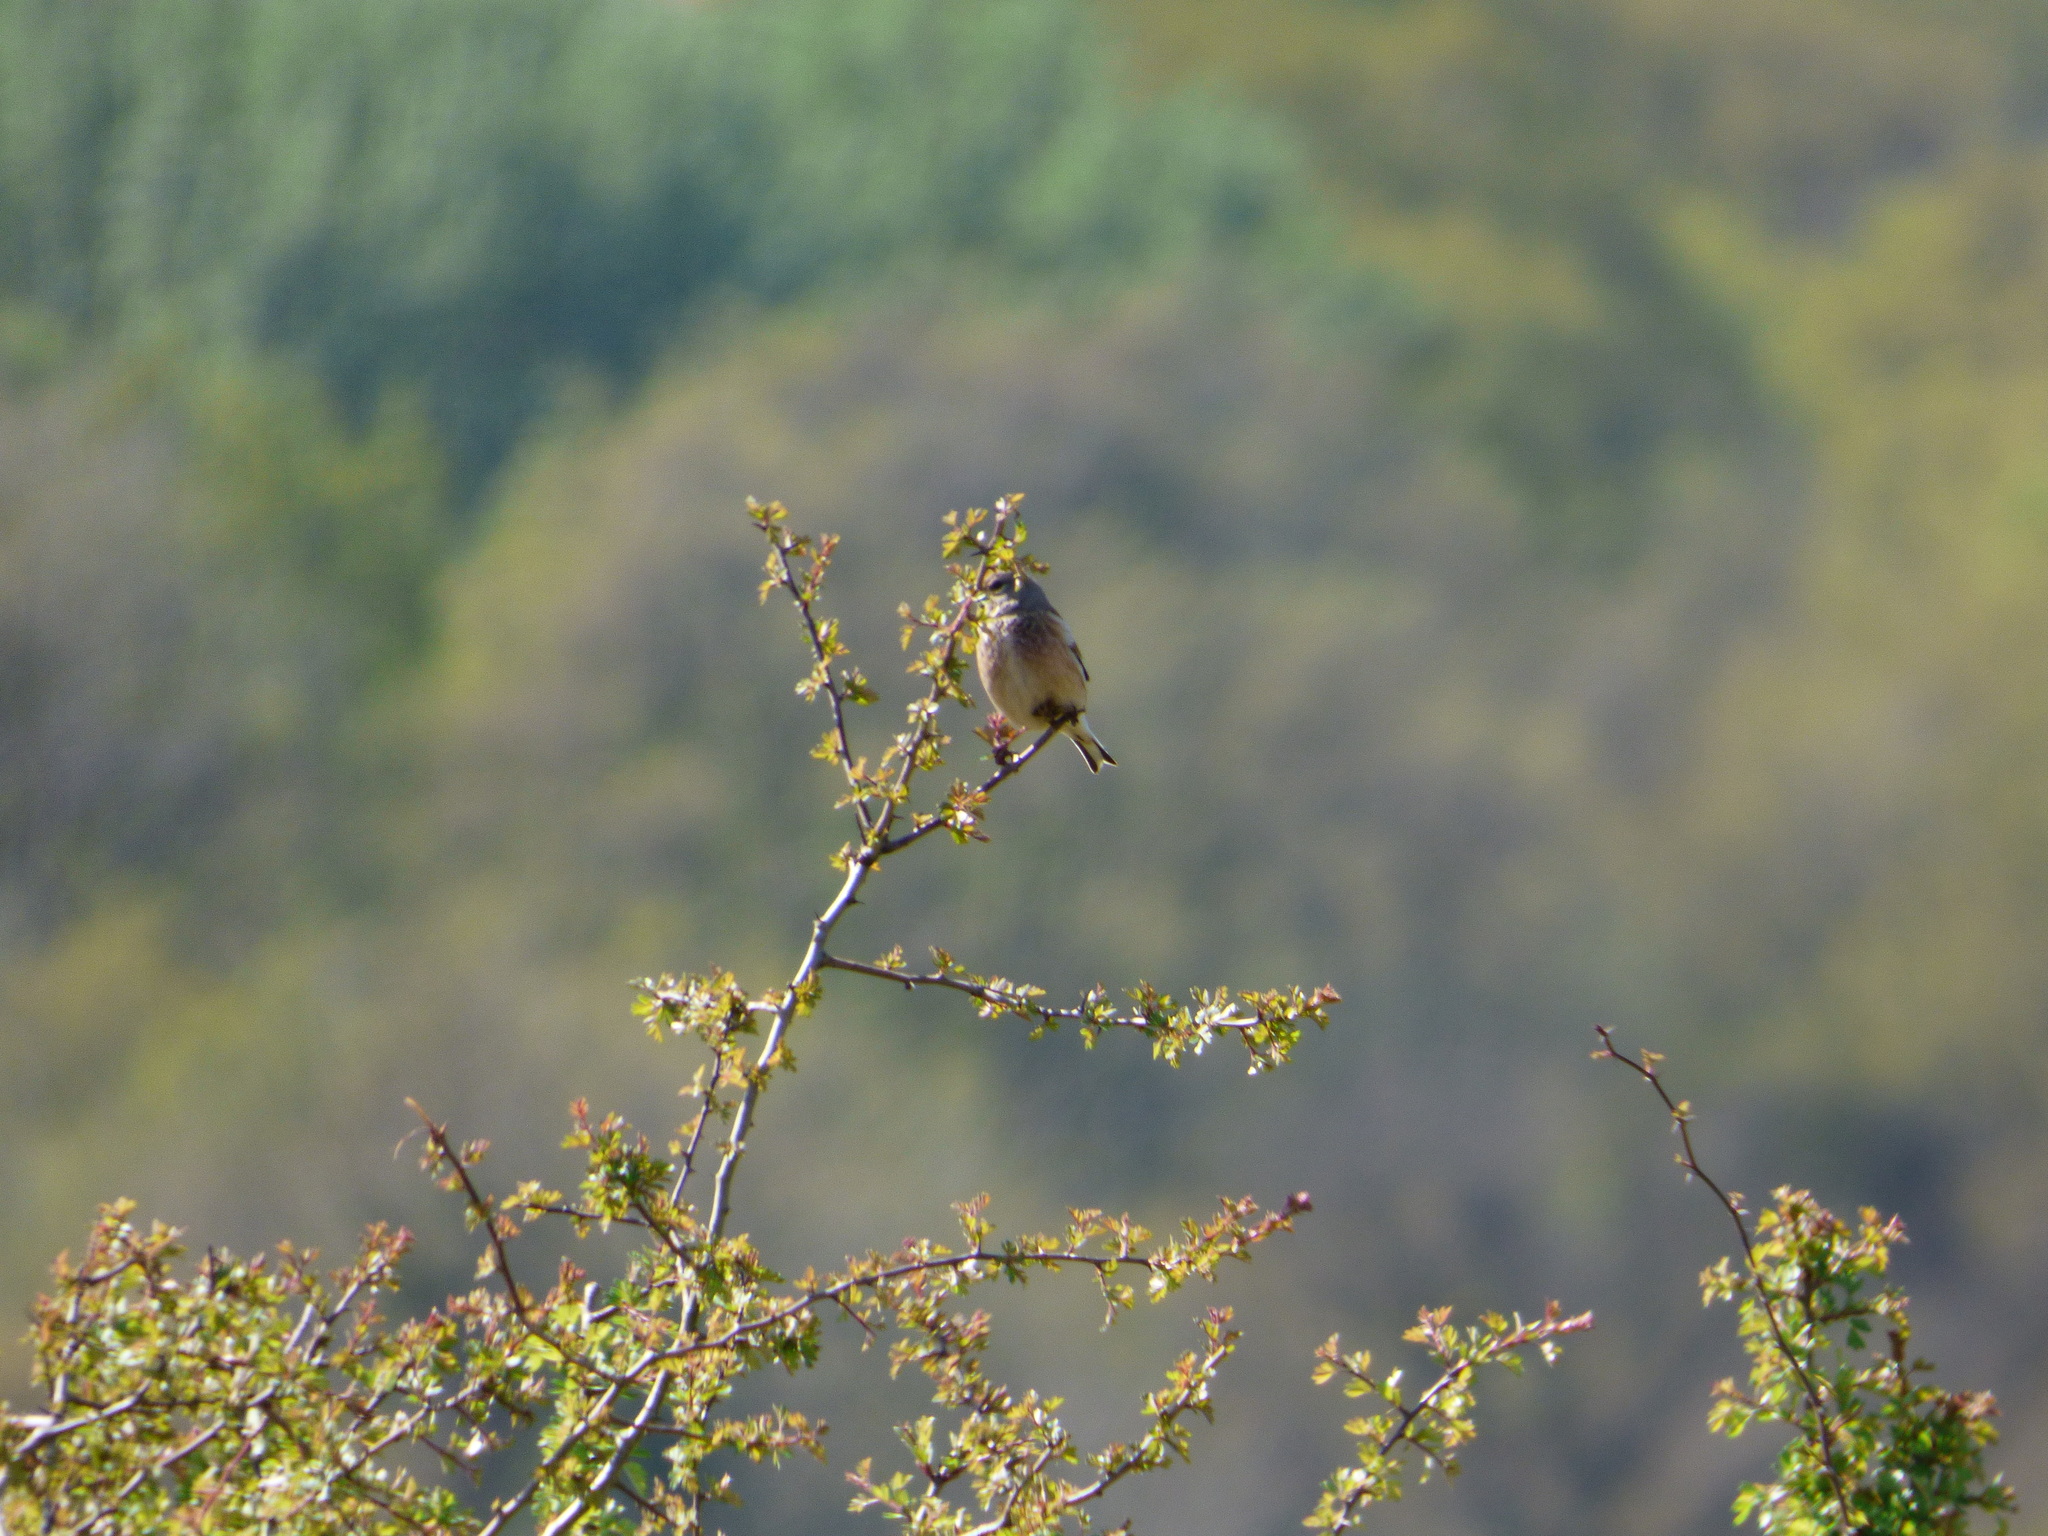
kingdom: Animalia
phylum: Chordata
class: Aves
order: Passeriformes
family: Fringillidae
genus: Linaria
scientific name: Linaria cannabina
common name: Common linnet
